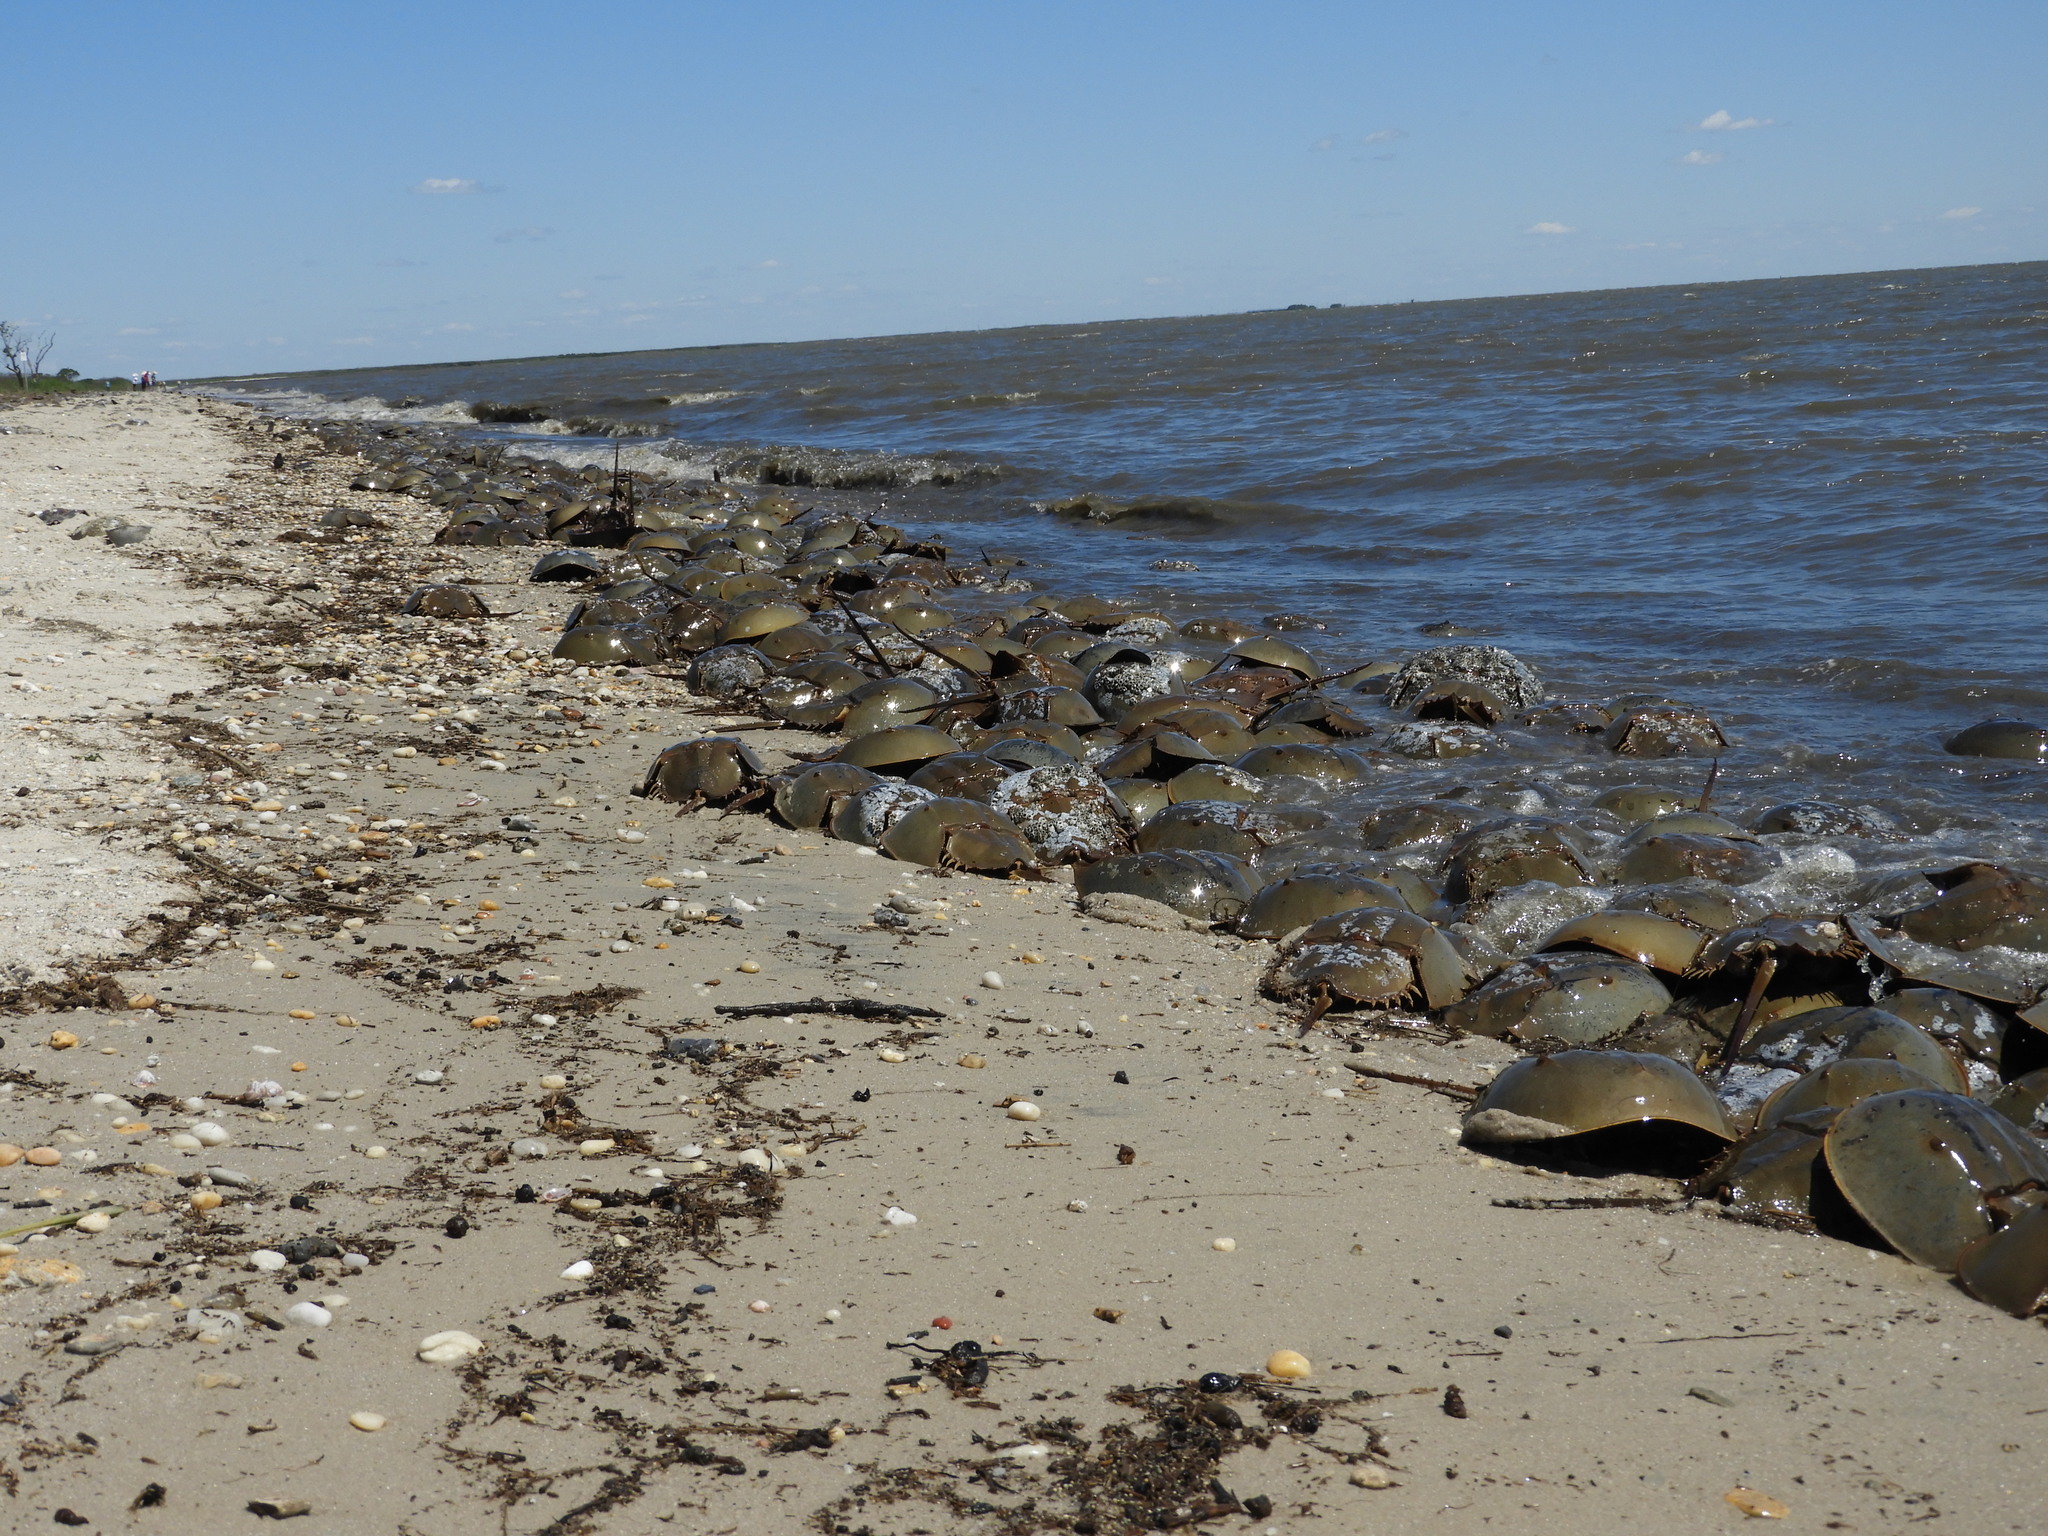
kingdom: Animalia
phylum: Arthropoda
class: Merostomata
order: Xiphosurida
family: Limulidae
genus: Limulus
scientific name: Limulus polyphemus
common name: Horseshoe crab
